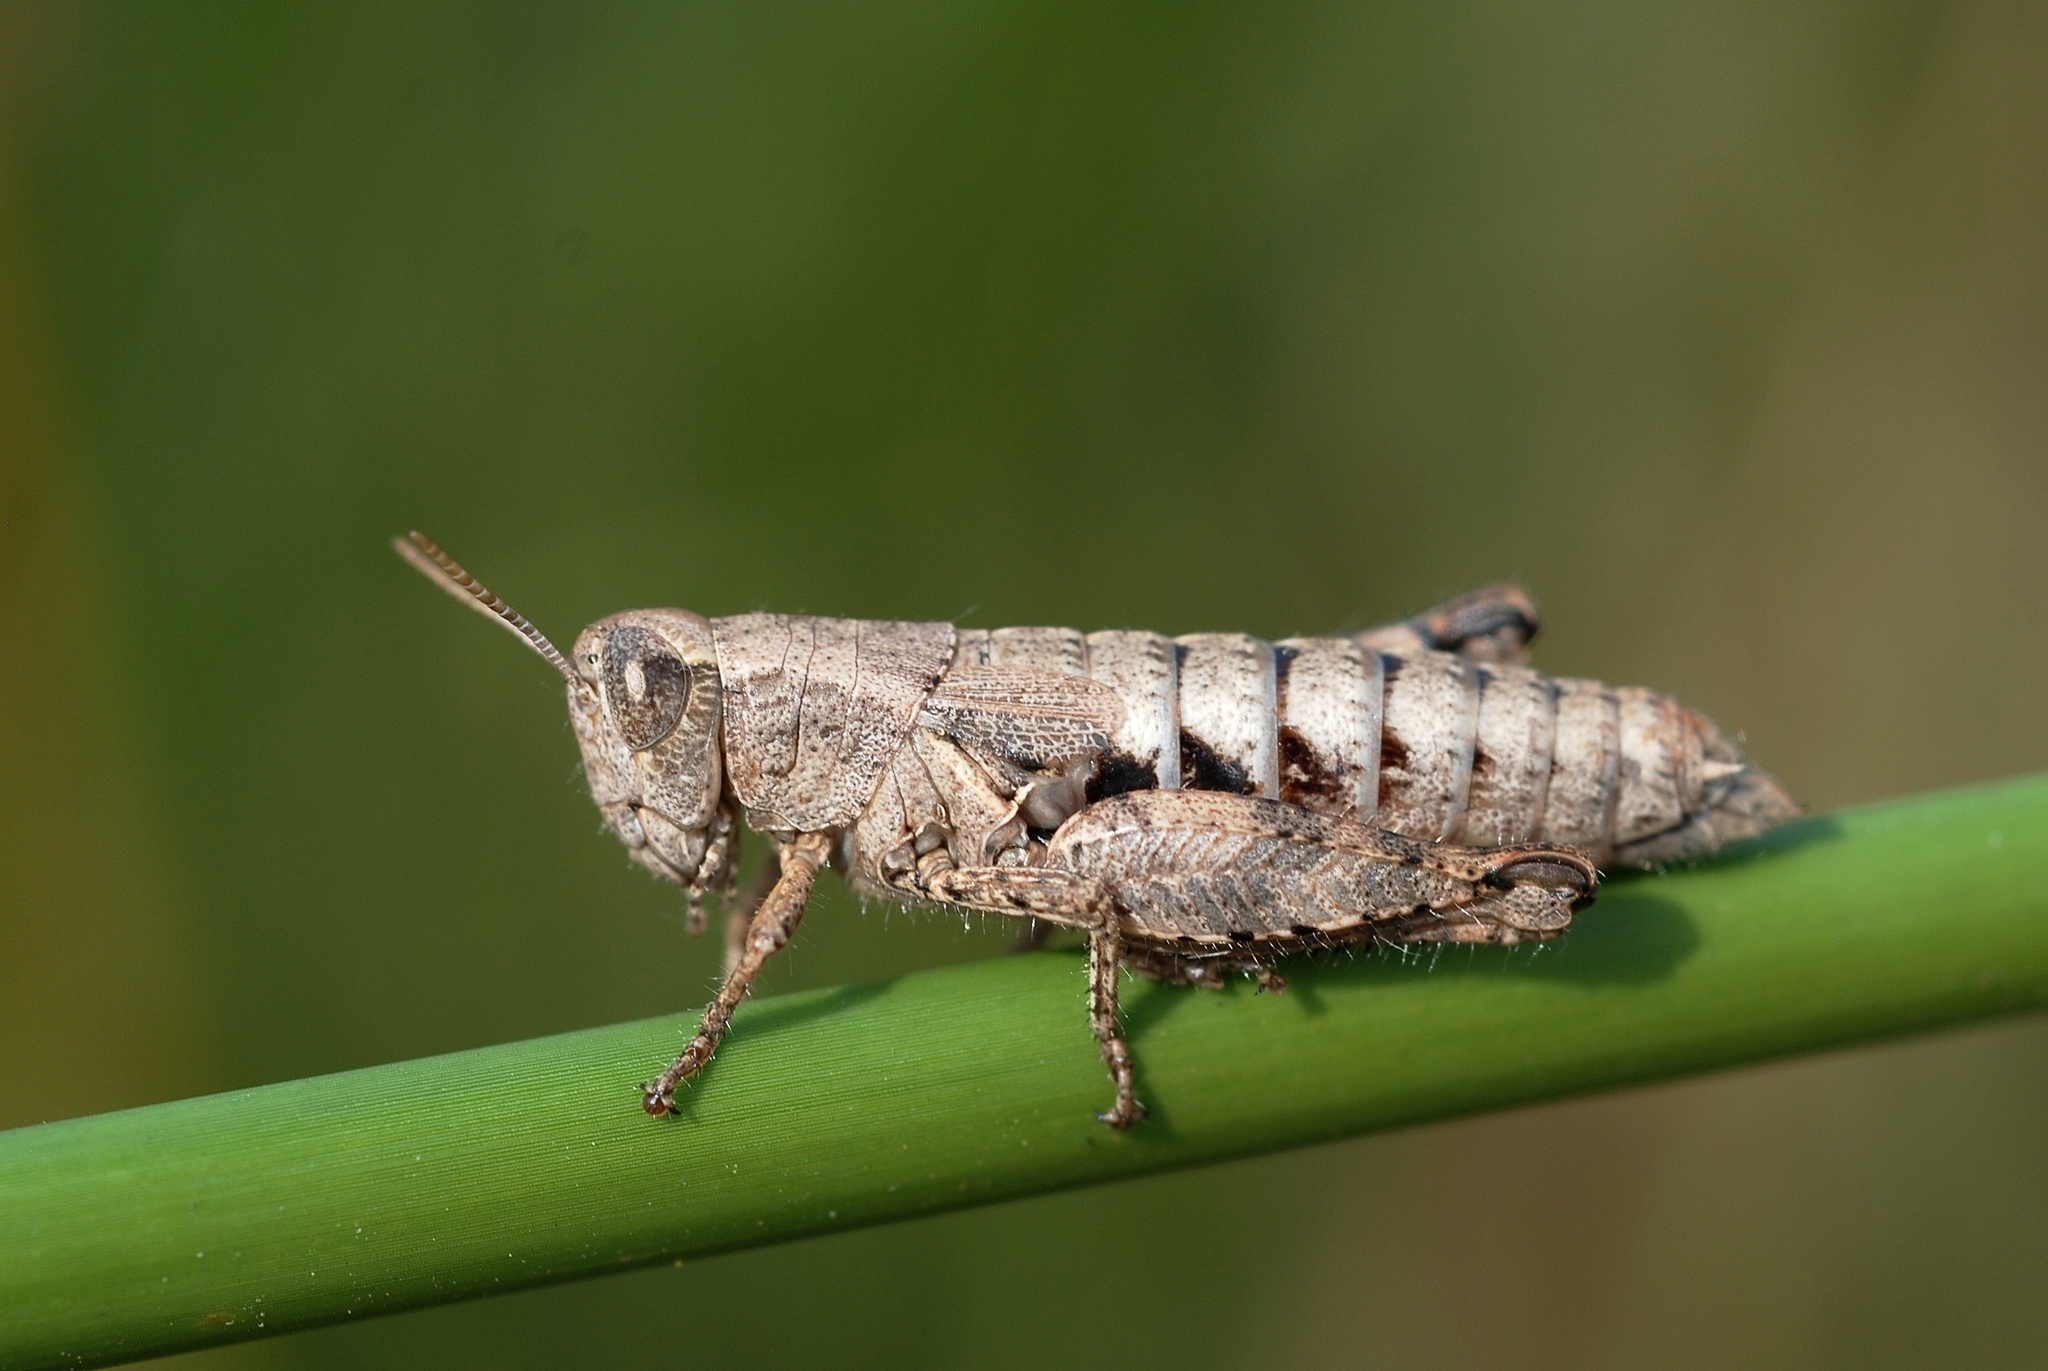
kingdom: Animalia
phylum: Arthropoda
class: Insecta
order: Orthoptera
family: Acrididae
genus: Pezotettix
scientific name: Pezotettix giornae
